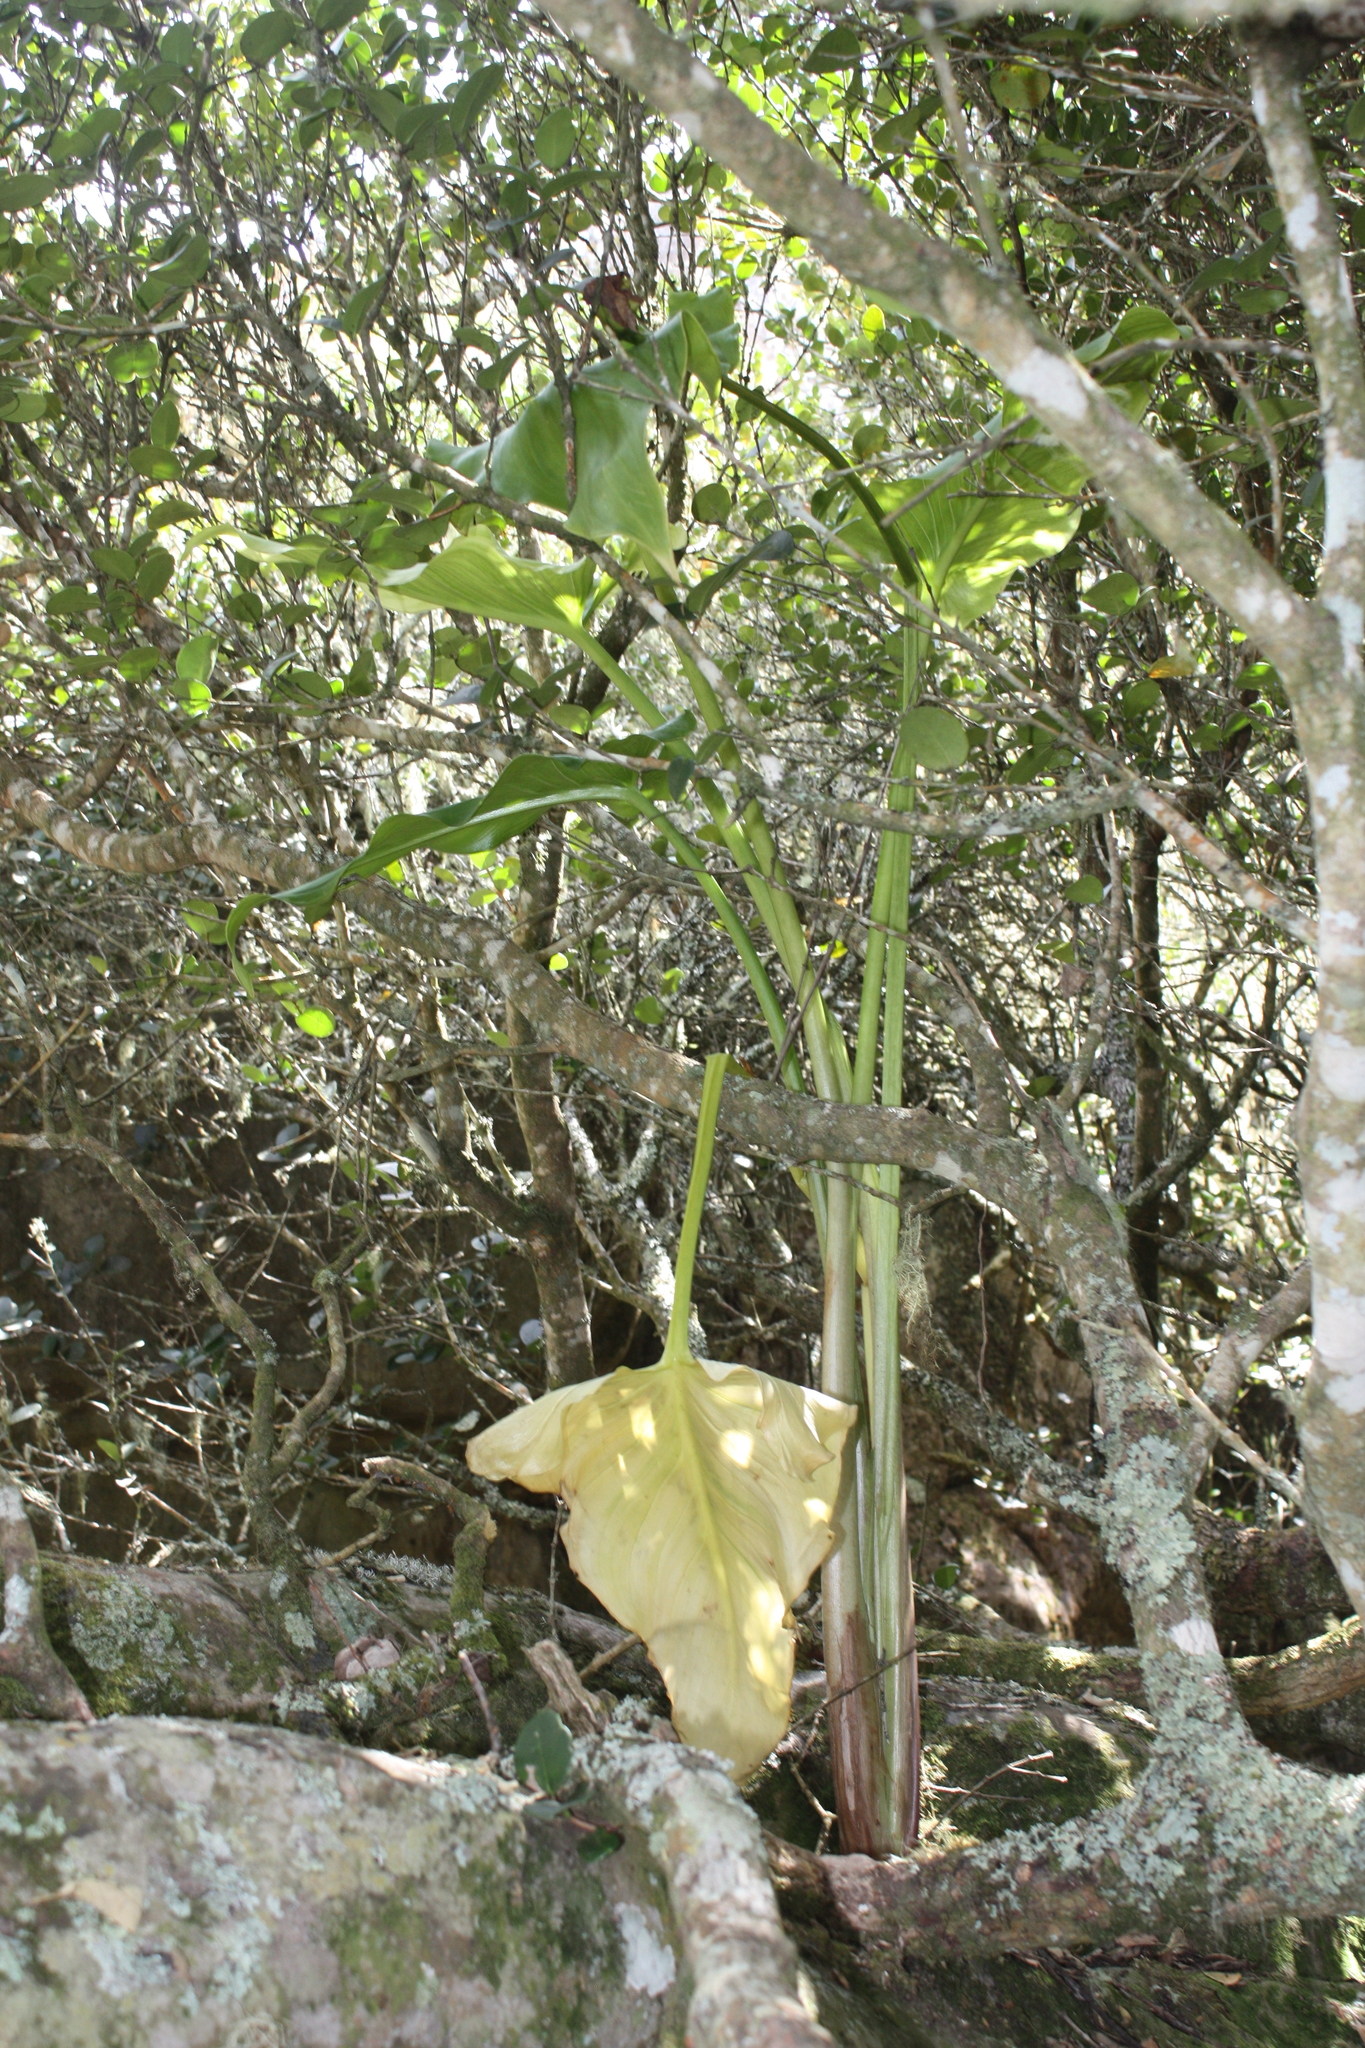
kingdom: Plantae
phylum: Tracheophyta
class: Liliopsida
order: Alismatales
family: Araceae
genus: Zantedeschia
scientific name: Zantedeschia aethiopica
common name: Altar-lily
